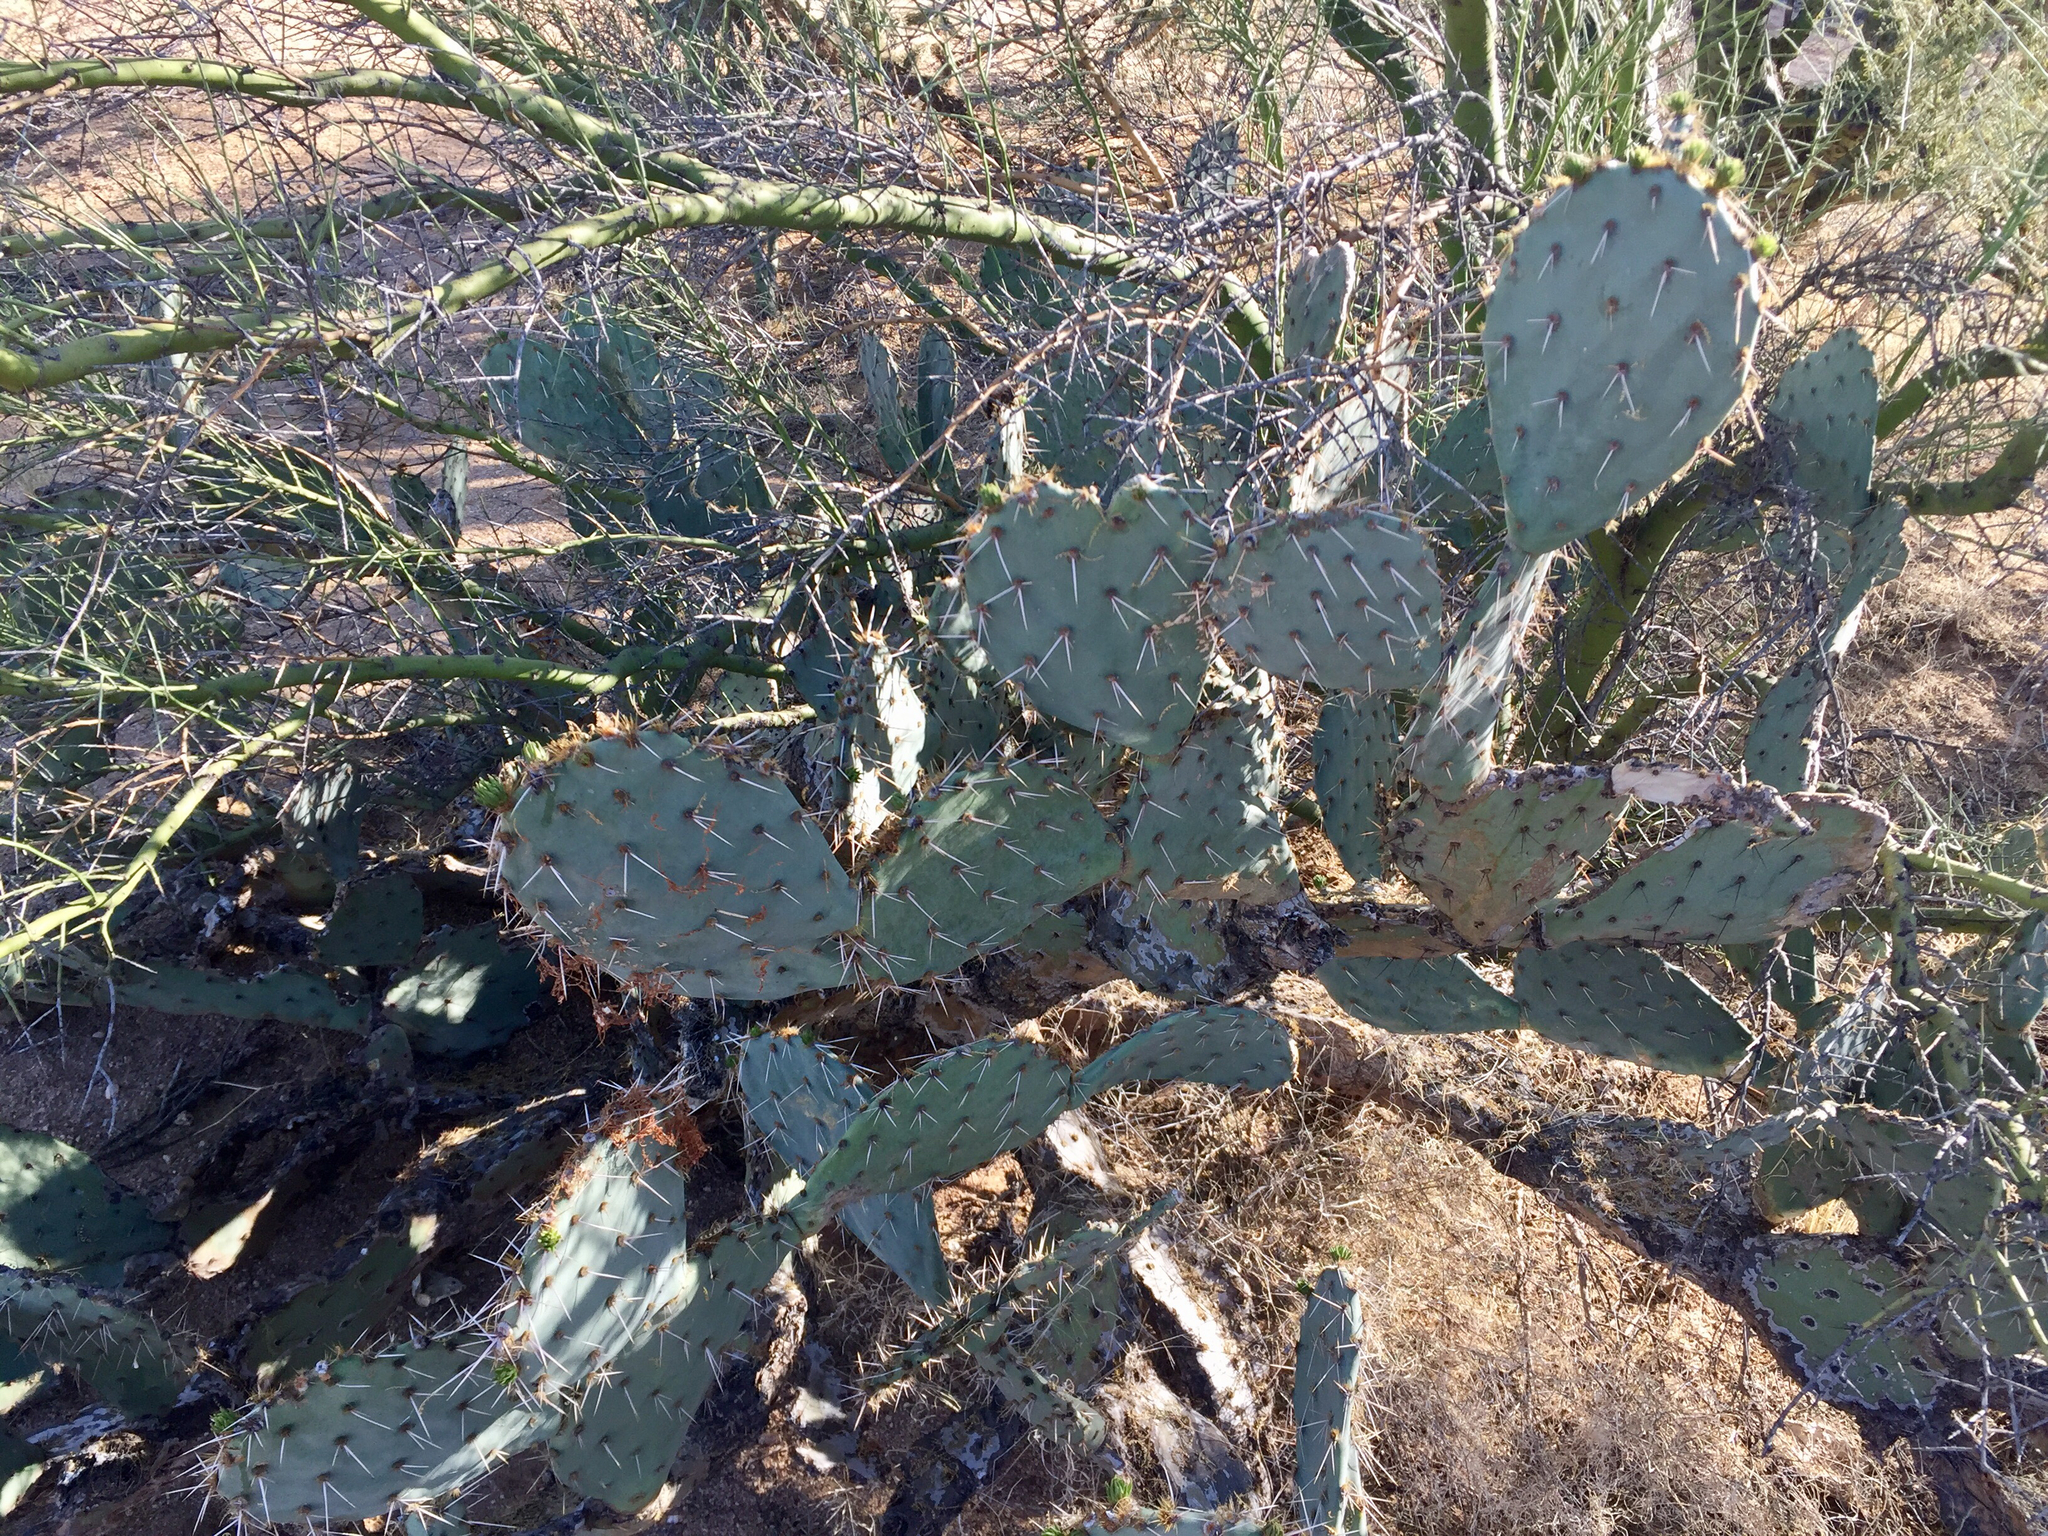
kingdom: Plantae
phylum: Tracheophyta
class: Magnoliopsida
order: Caryophyllales
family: Cactaceae
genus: Opuntia
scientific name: Opuntia engelmannii
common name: Cactus-apple
